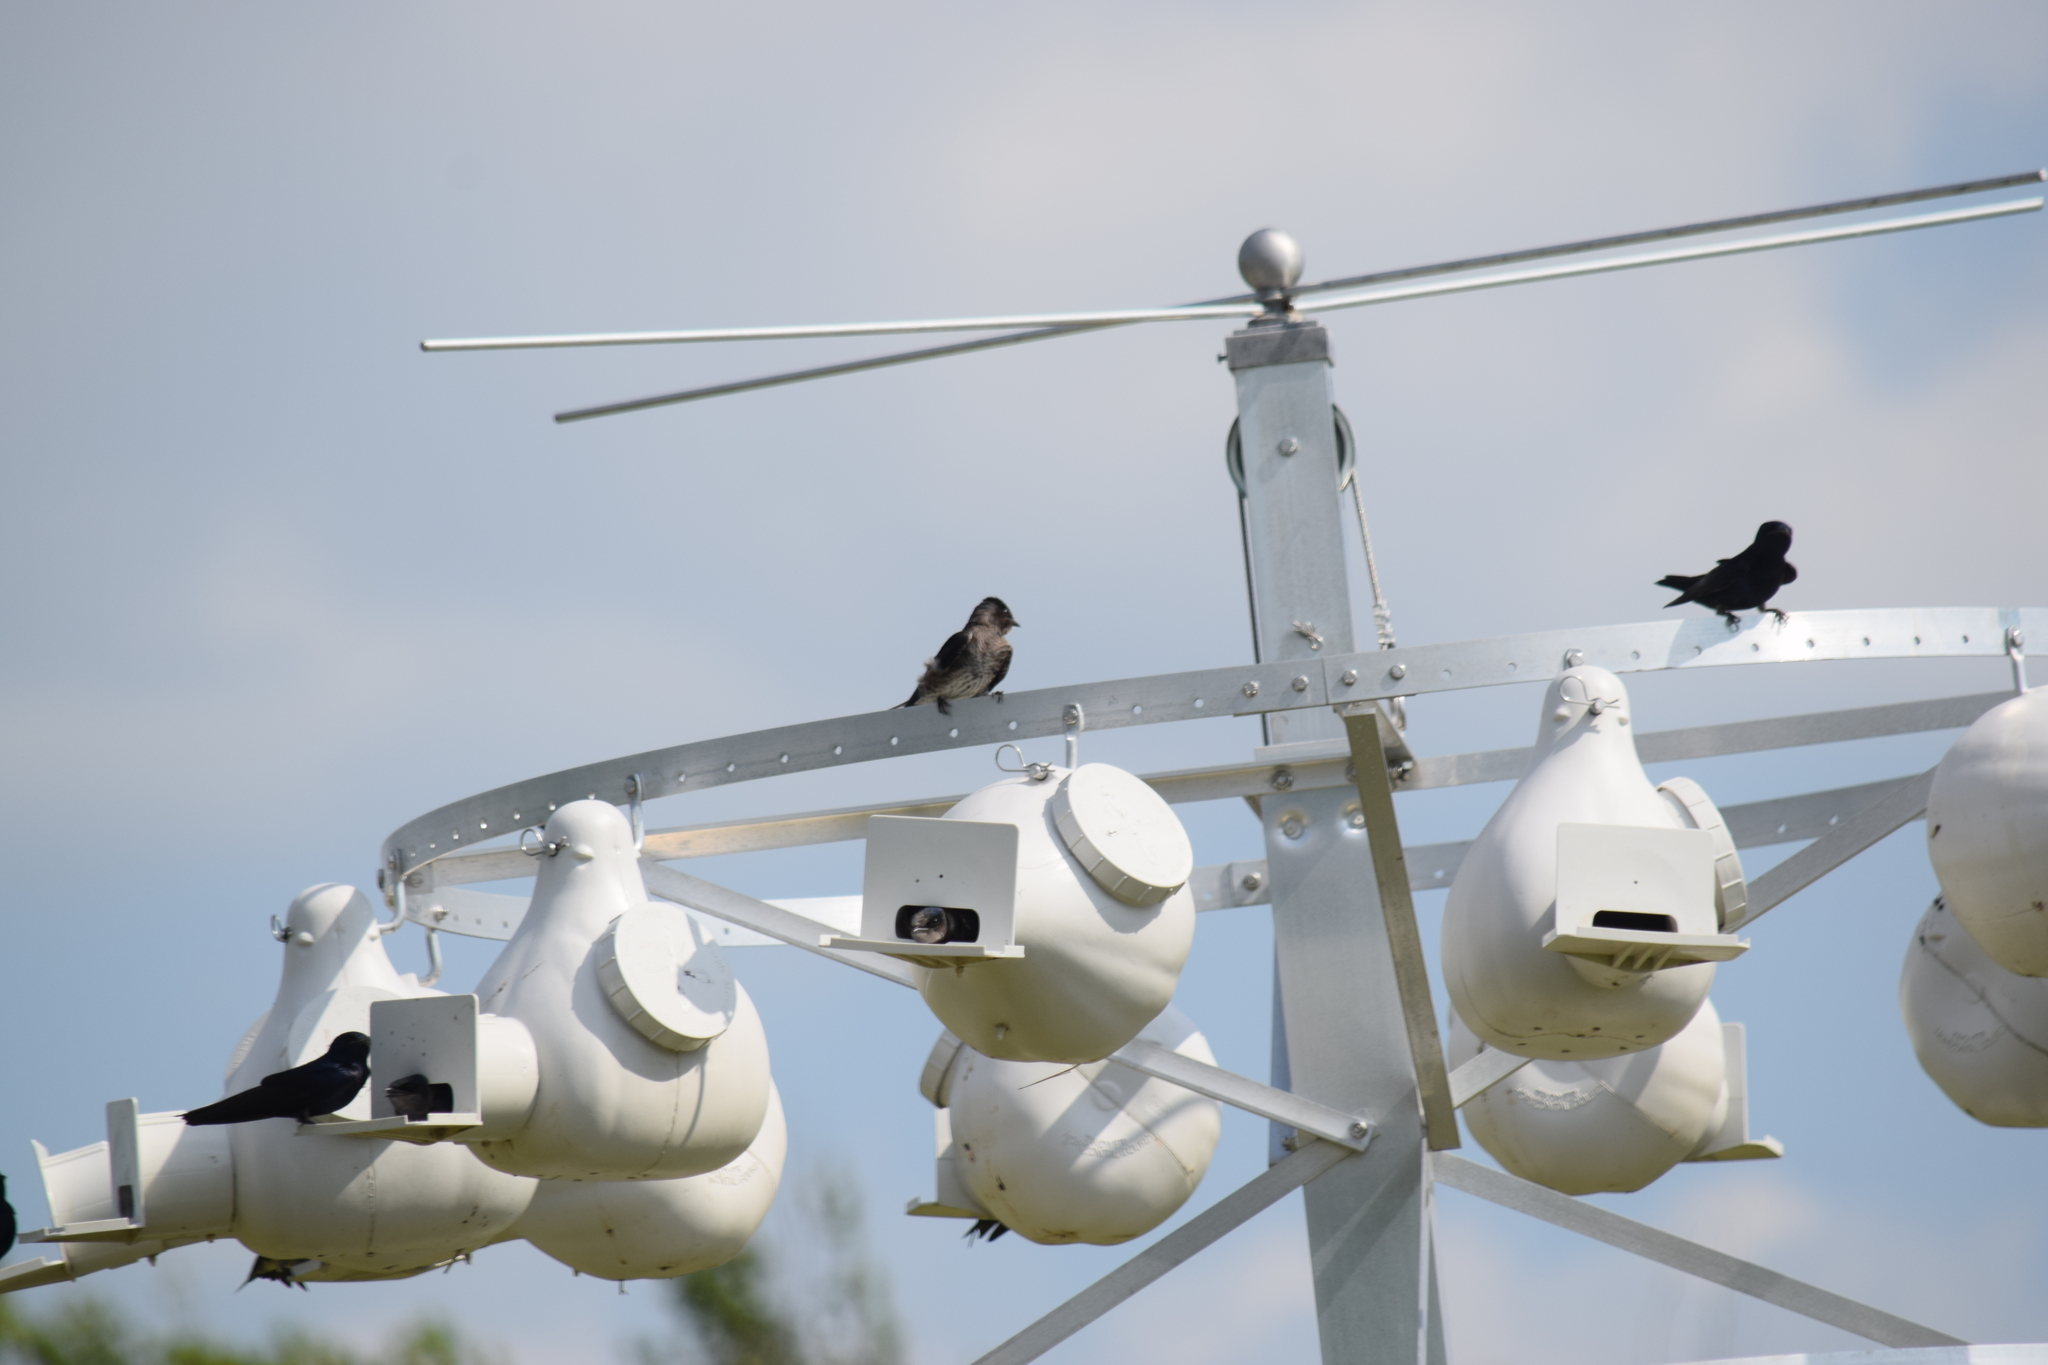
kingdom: Animalia
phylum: Chordata
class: Aves
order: Passeriformes
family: Hirundinidae
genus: Progne
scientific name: Progne subis
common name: Purple martin
